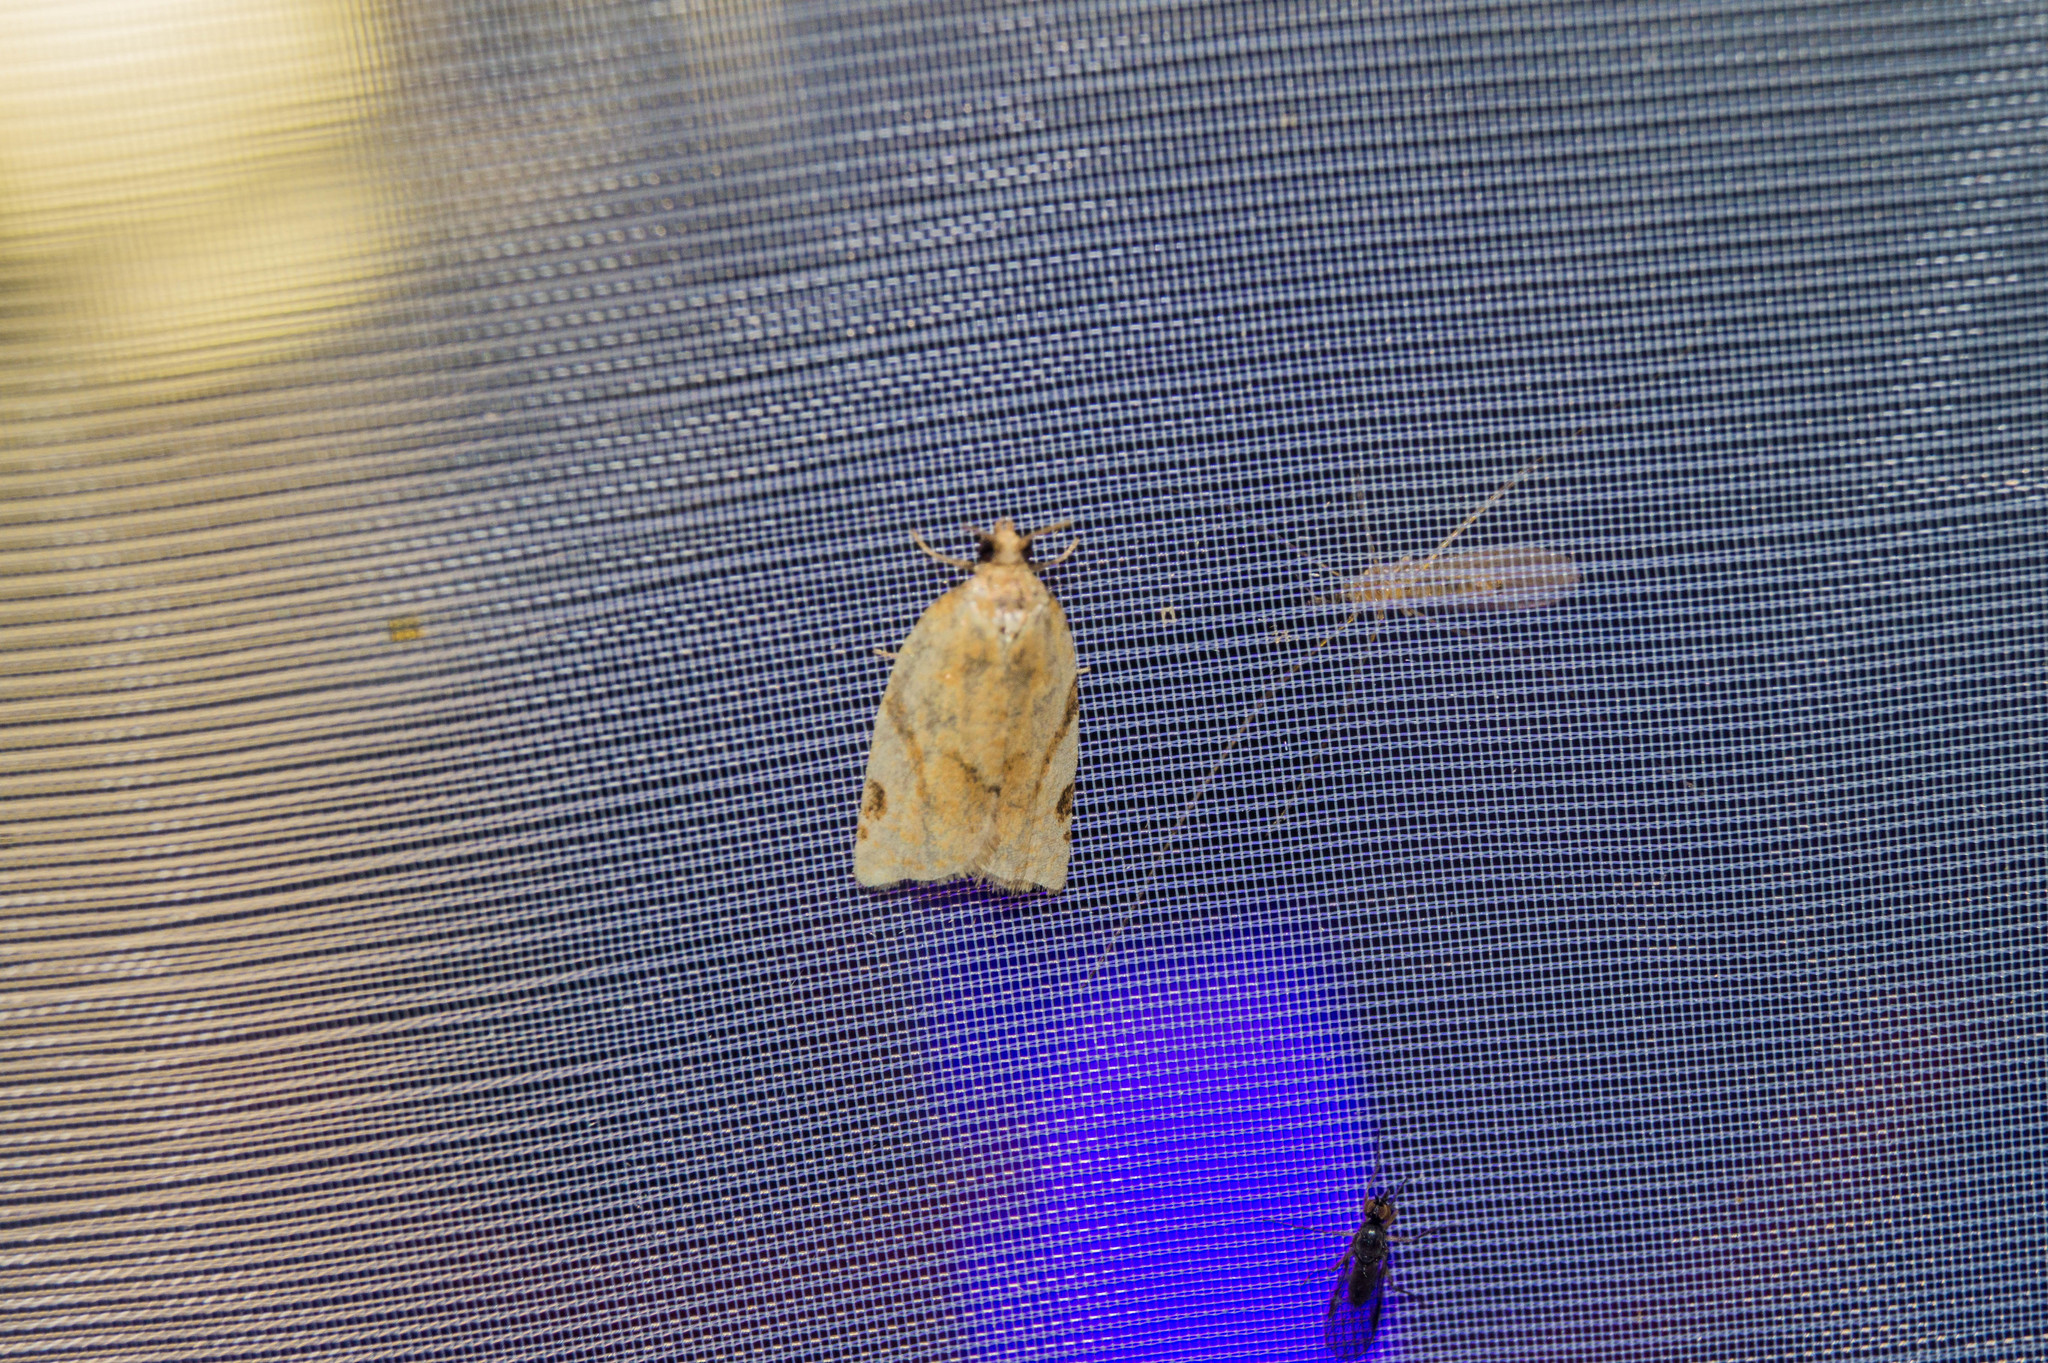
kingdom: Animalia
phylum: Arthropoda
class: Insecta
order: Lepidoptera
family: Tortricidae
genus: Paramesia
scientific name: Paramesia gnomana
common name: Small straw twist
